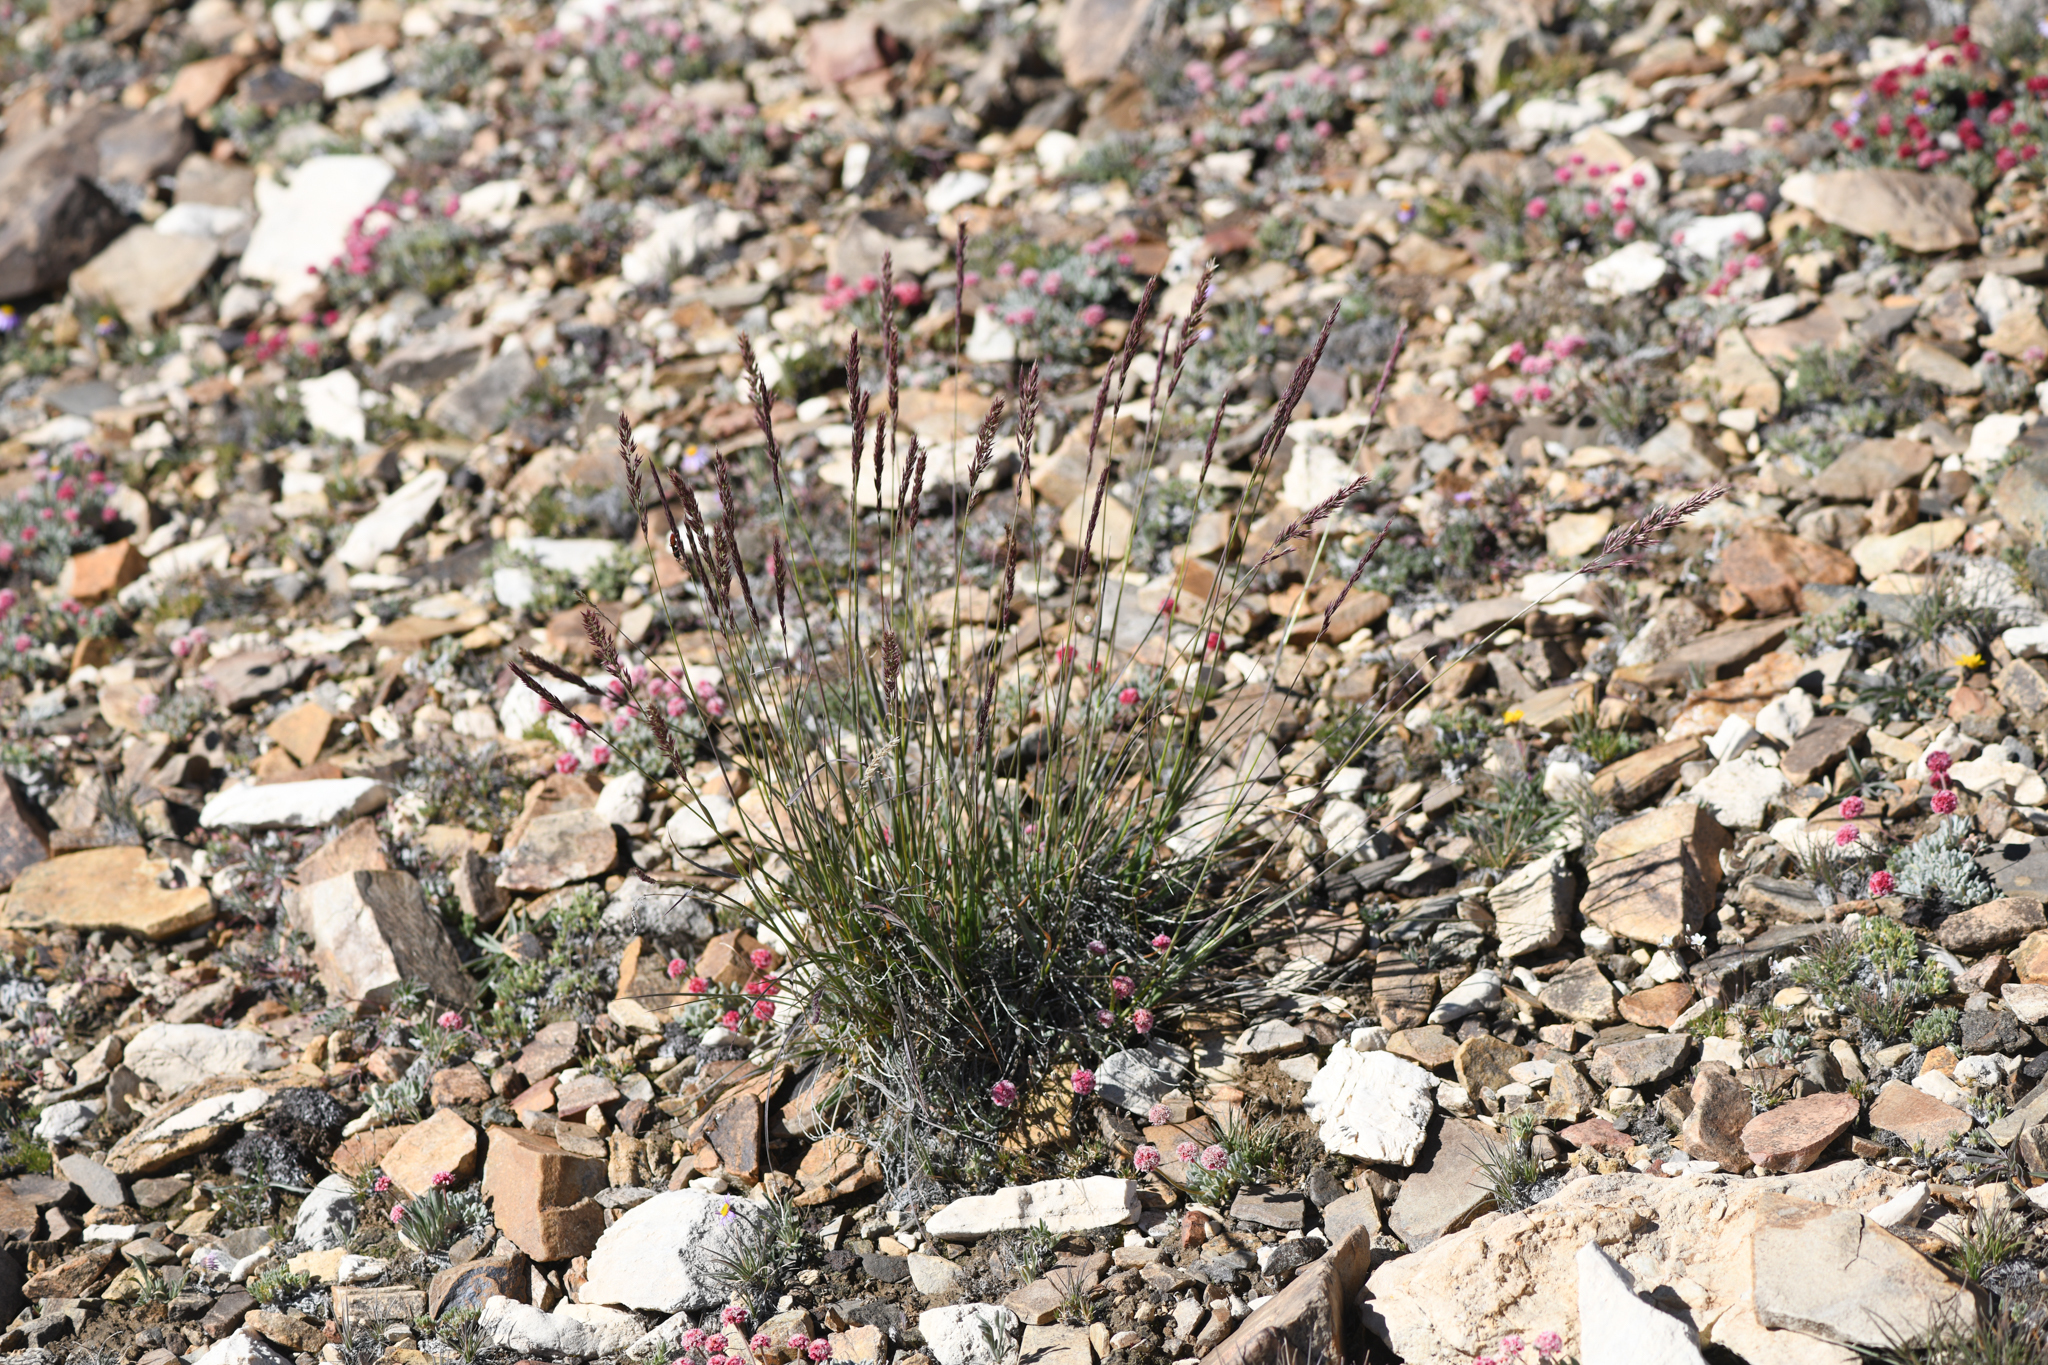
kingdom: Plantae
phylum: Tracheophyta
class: Liliopsida
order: Poales
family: Poaceae
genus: Calamagrostis
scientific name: Calamagrostis purpurascens
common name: Purple reedgrass
